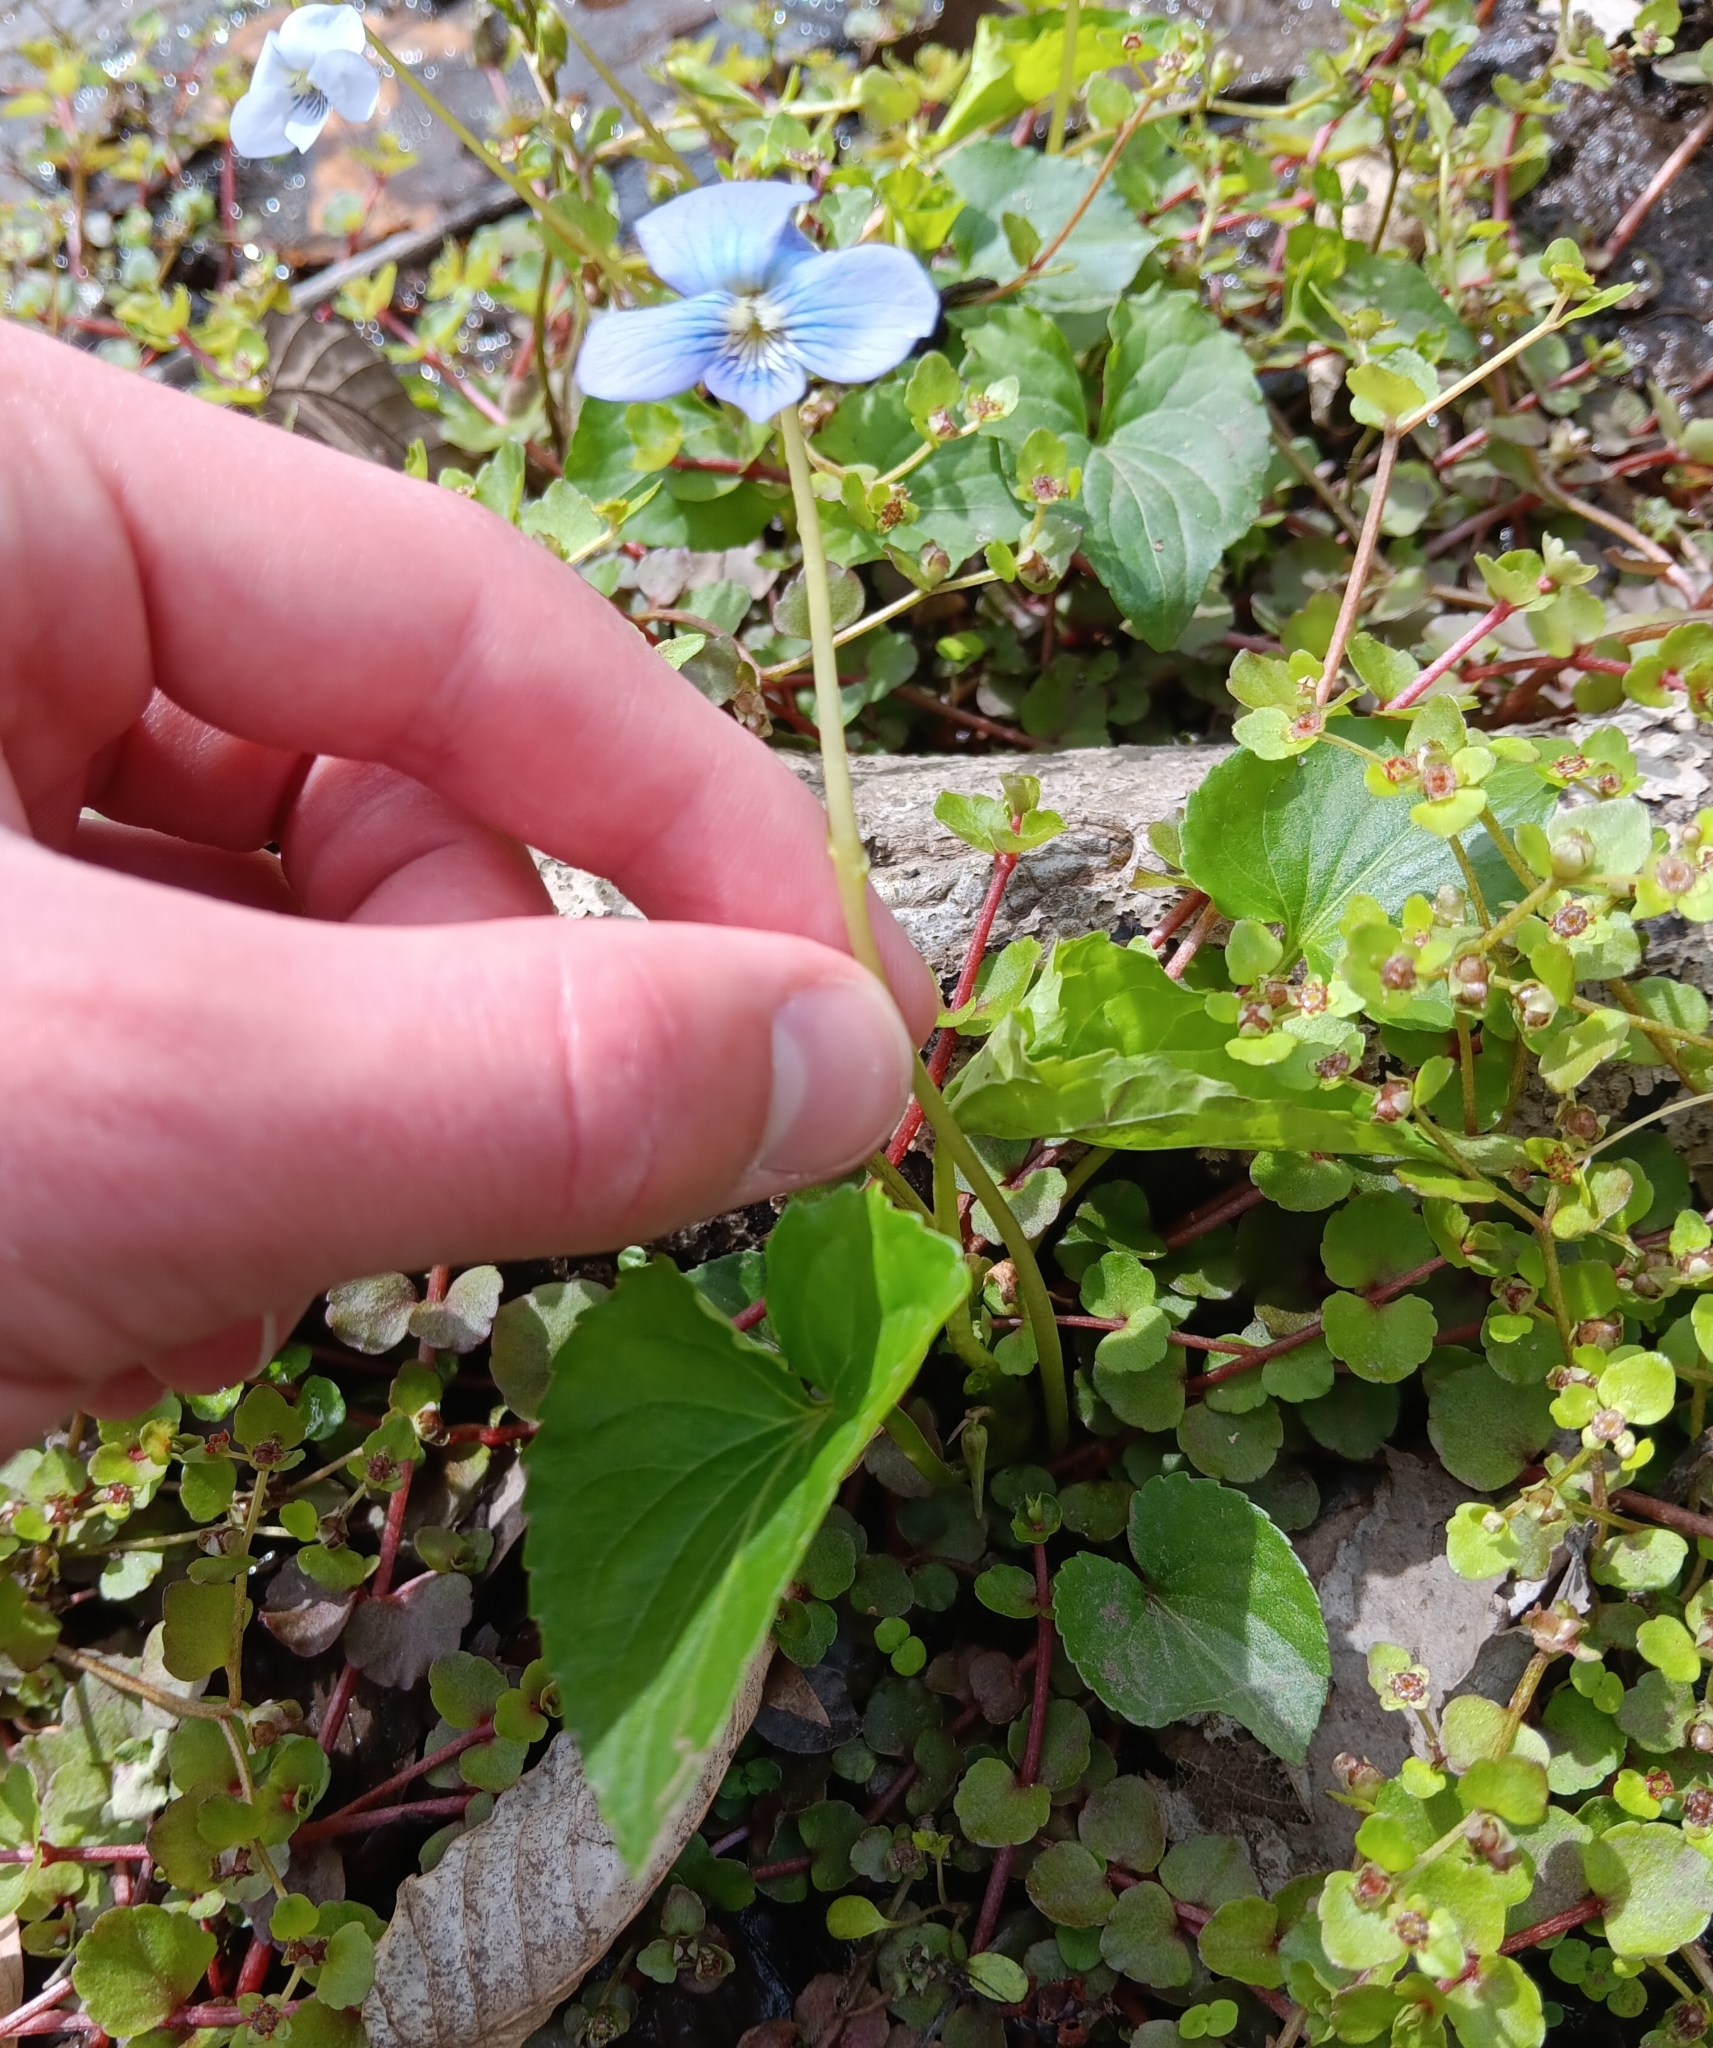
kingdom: Plantae
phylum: Tracheophyta
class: Magnoliopsida
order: Malpighiales
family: Violaceae
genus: Viola
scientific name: Viola cucullata
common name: Marsh blue violet
